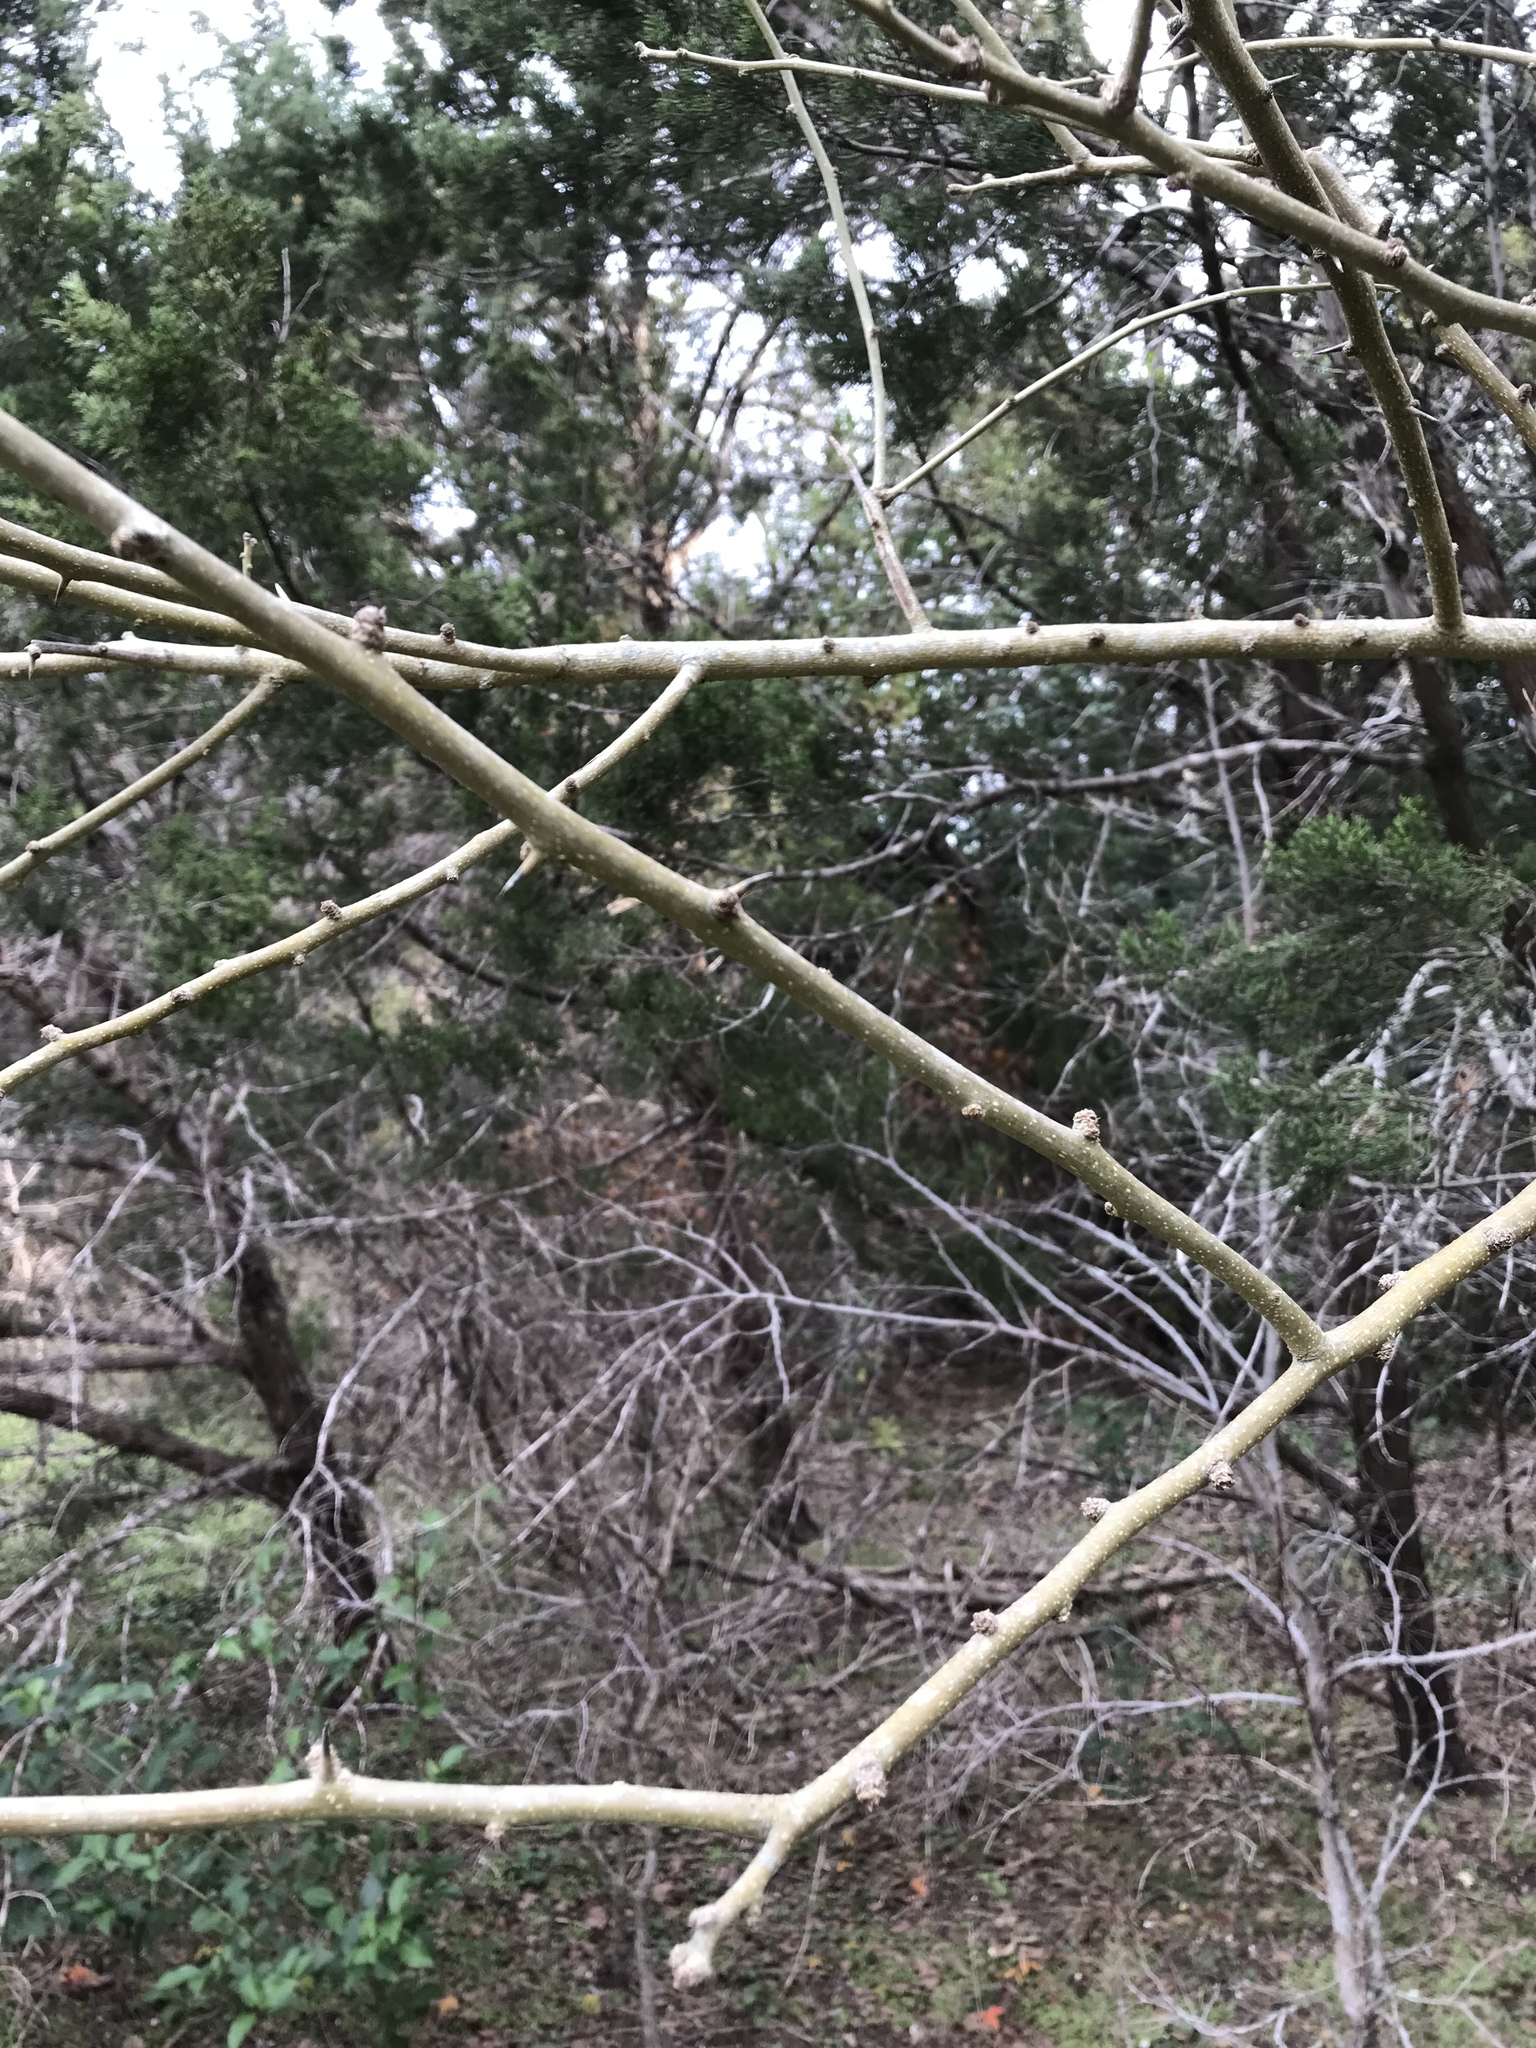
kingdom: Plantae
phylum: Tracheophyta
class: Magnoliopsida
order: Rosales
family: Moraceae
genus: Maclura
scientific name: Maclura pomifera
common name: Osage-orange
